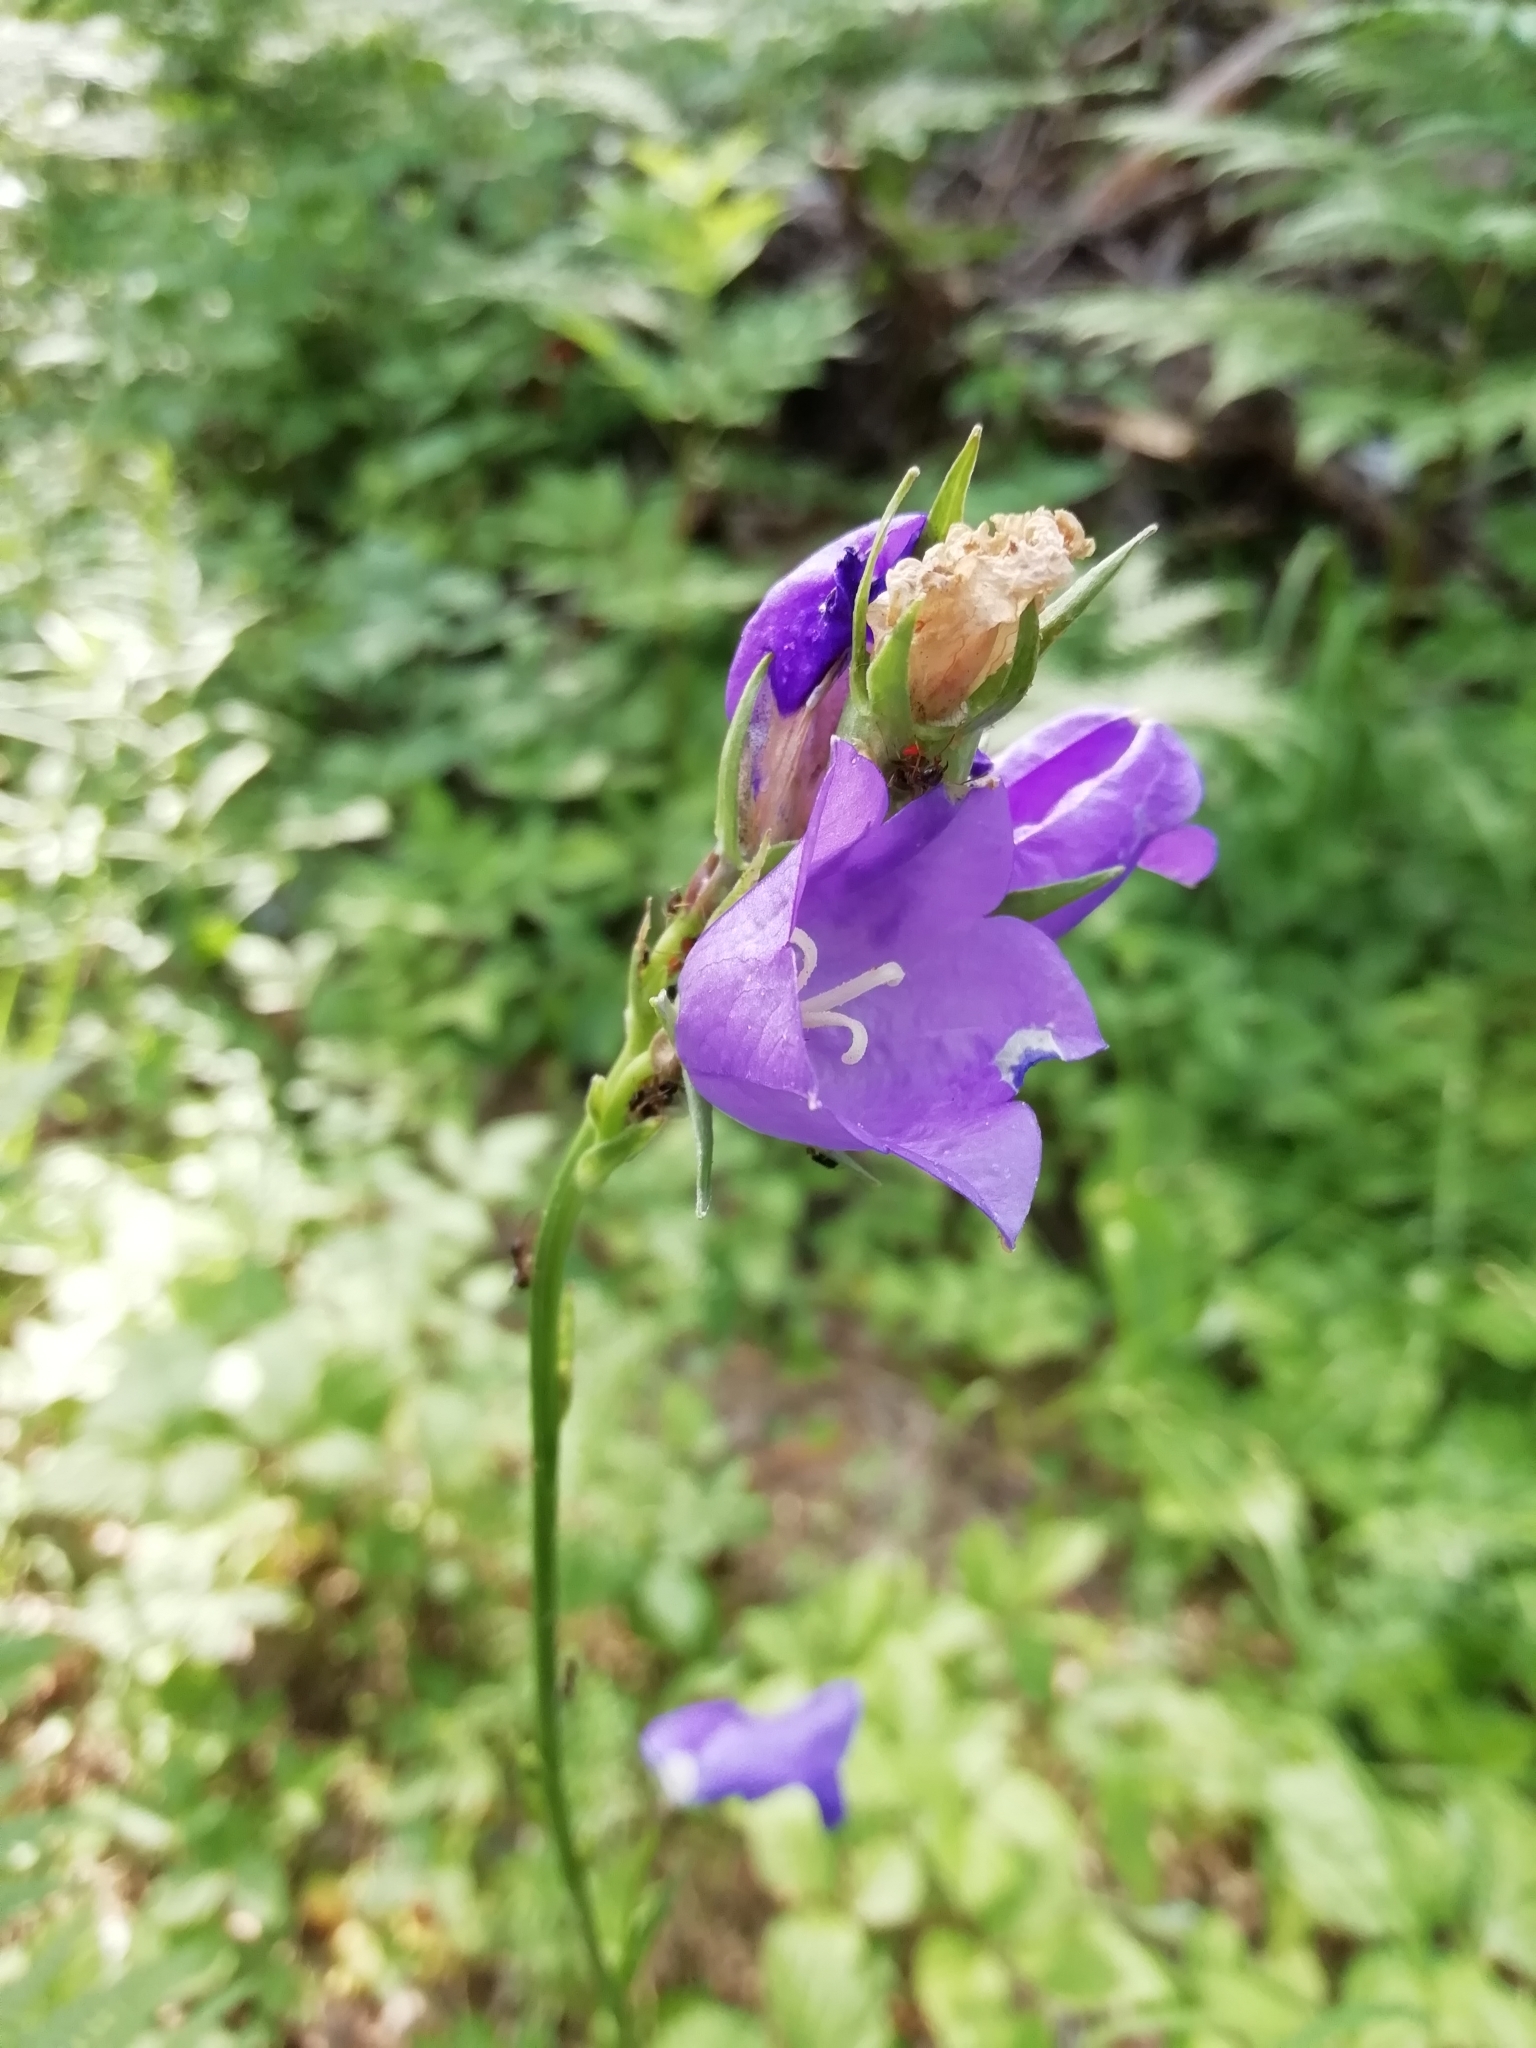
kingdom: Plantae
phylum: Tracheophyta
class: Magnoliopsida
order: Asterales
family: Campanulaceae
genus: Campanula
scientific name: Campanula persicifolia
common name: Peach-leaved bellflower
